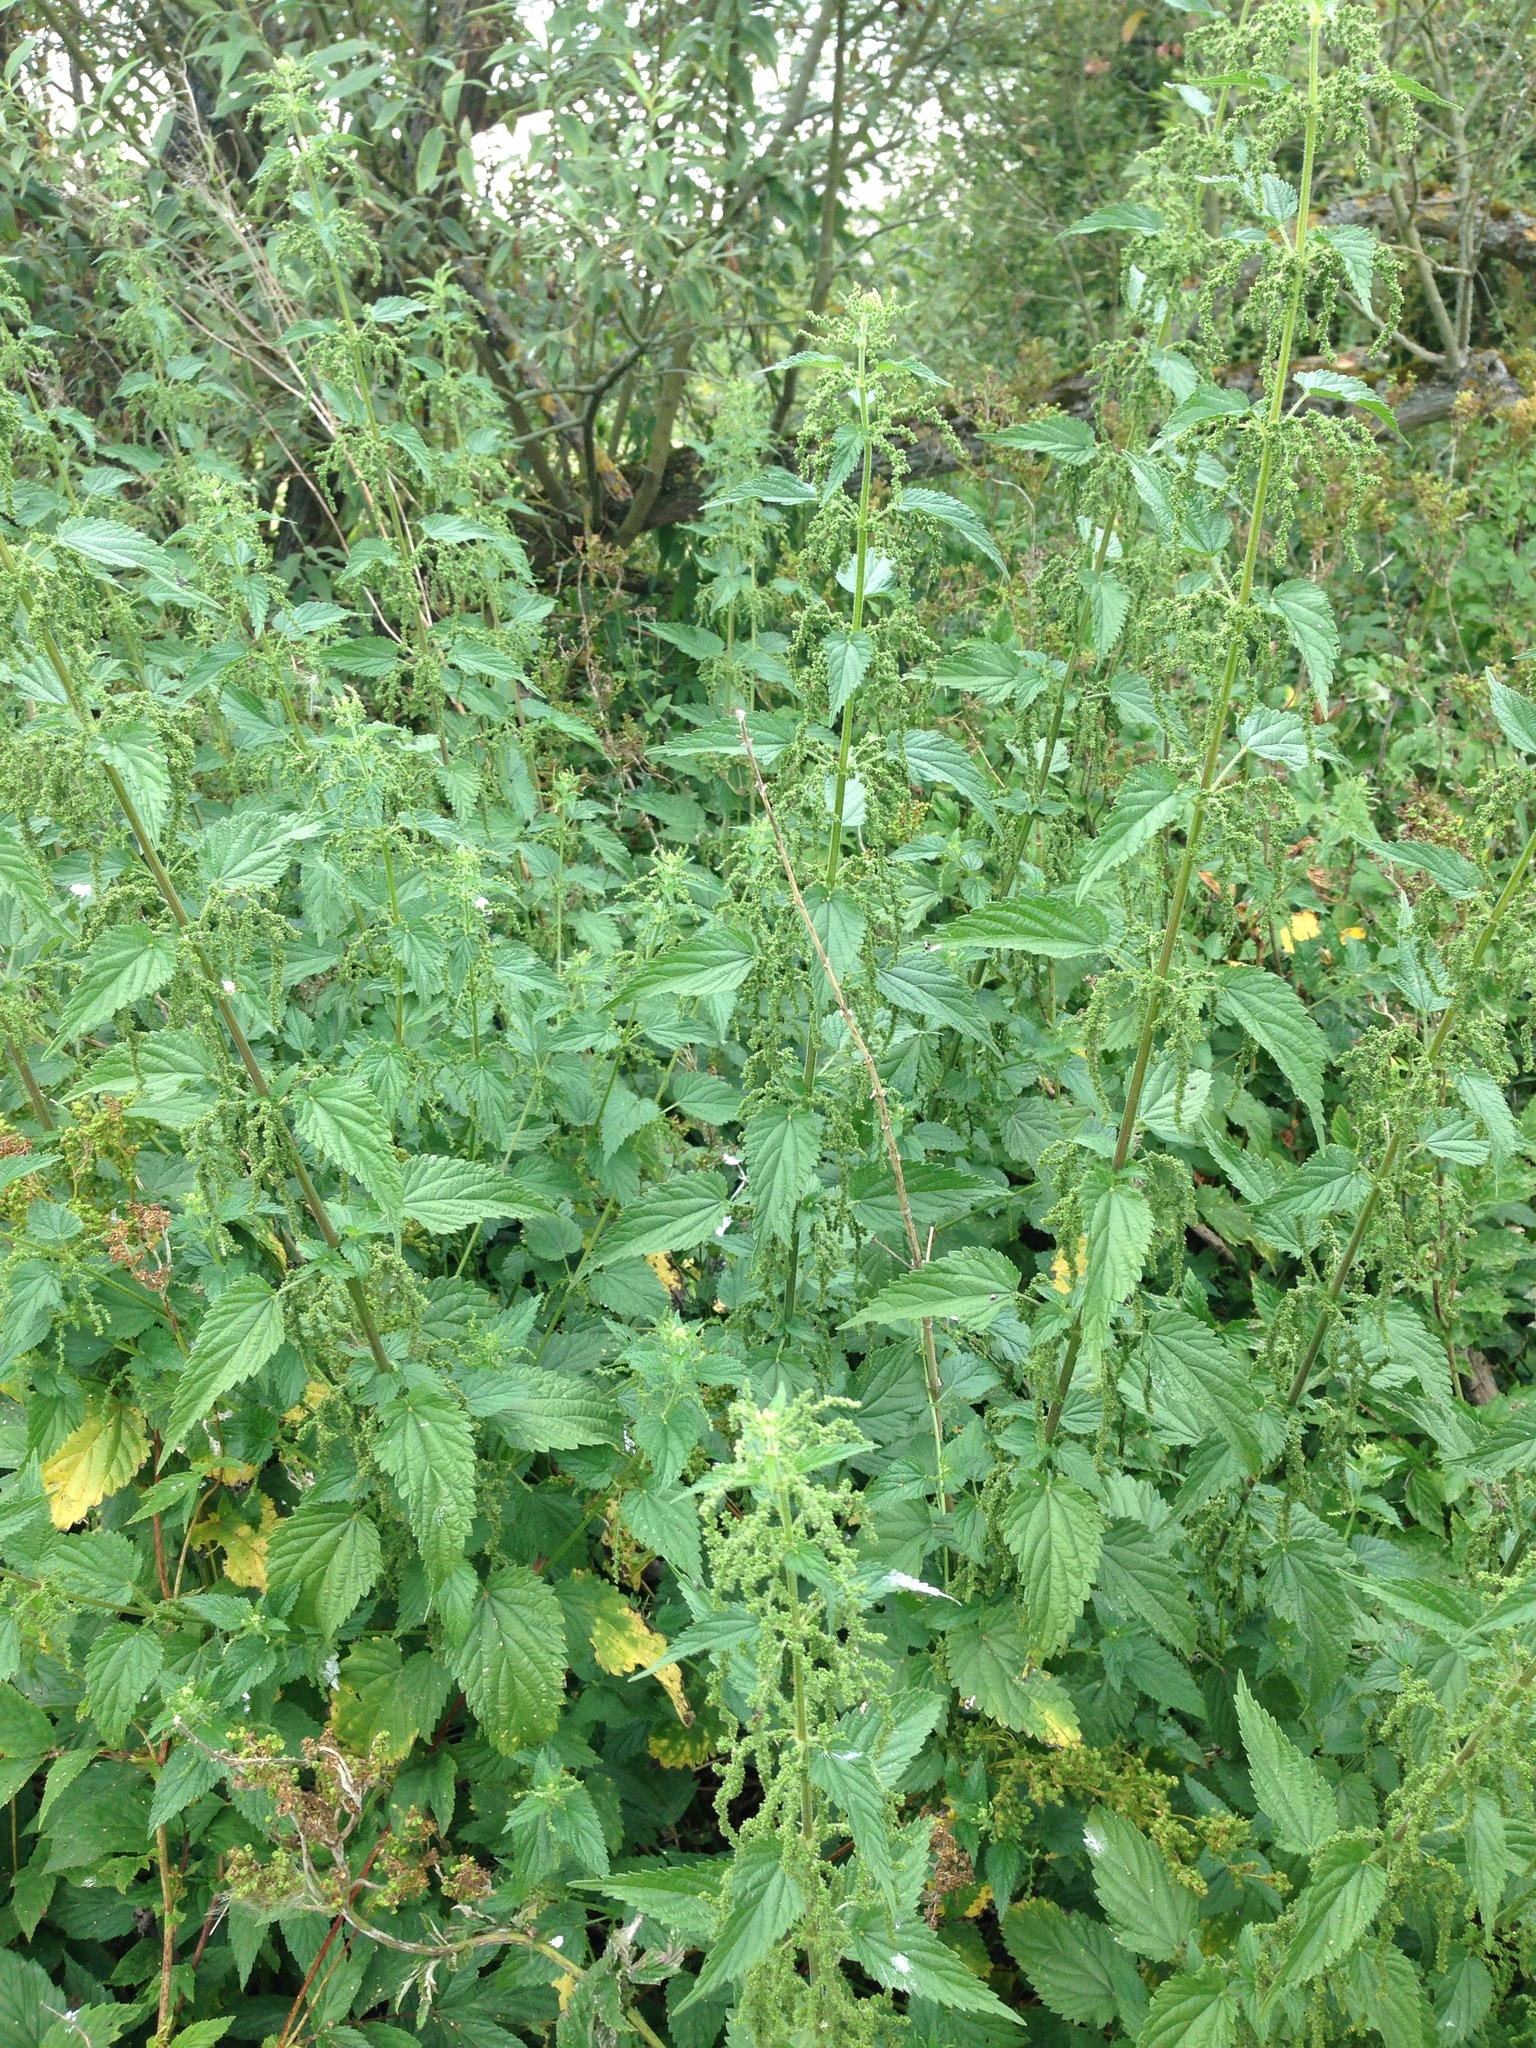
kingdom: Plantae
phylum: Tracheophyta
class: Magnoliopsida
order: Rosales
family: Urticaceae
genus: Urtica
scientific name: Urtica dioica
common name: Common nettle
